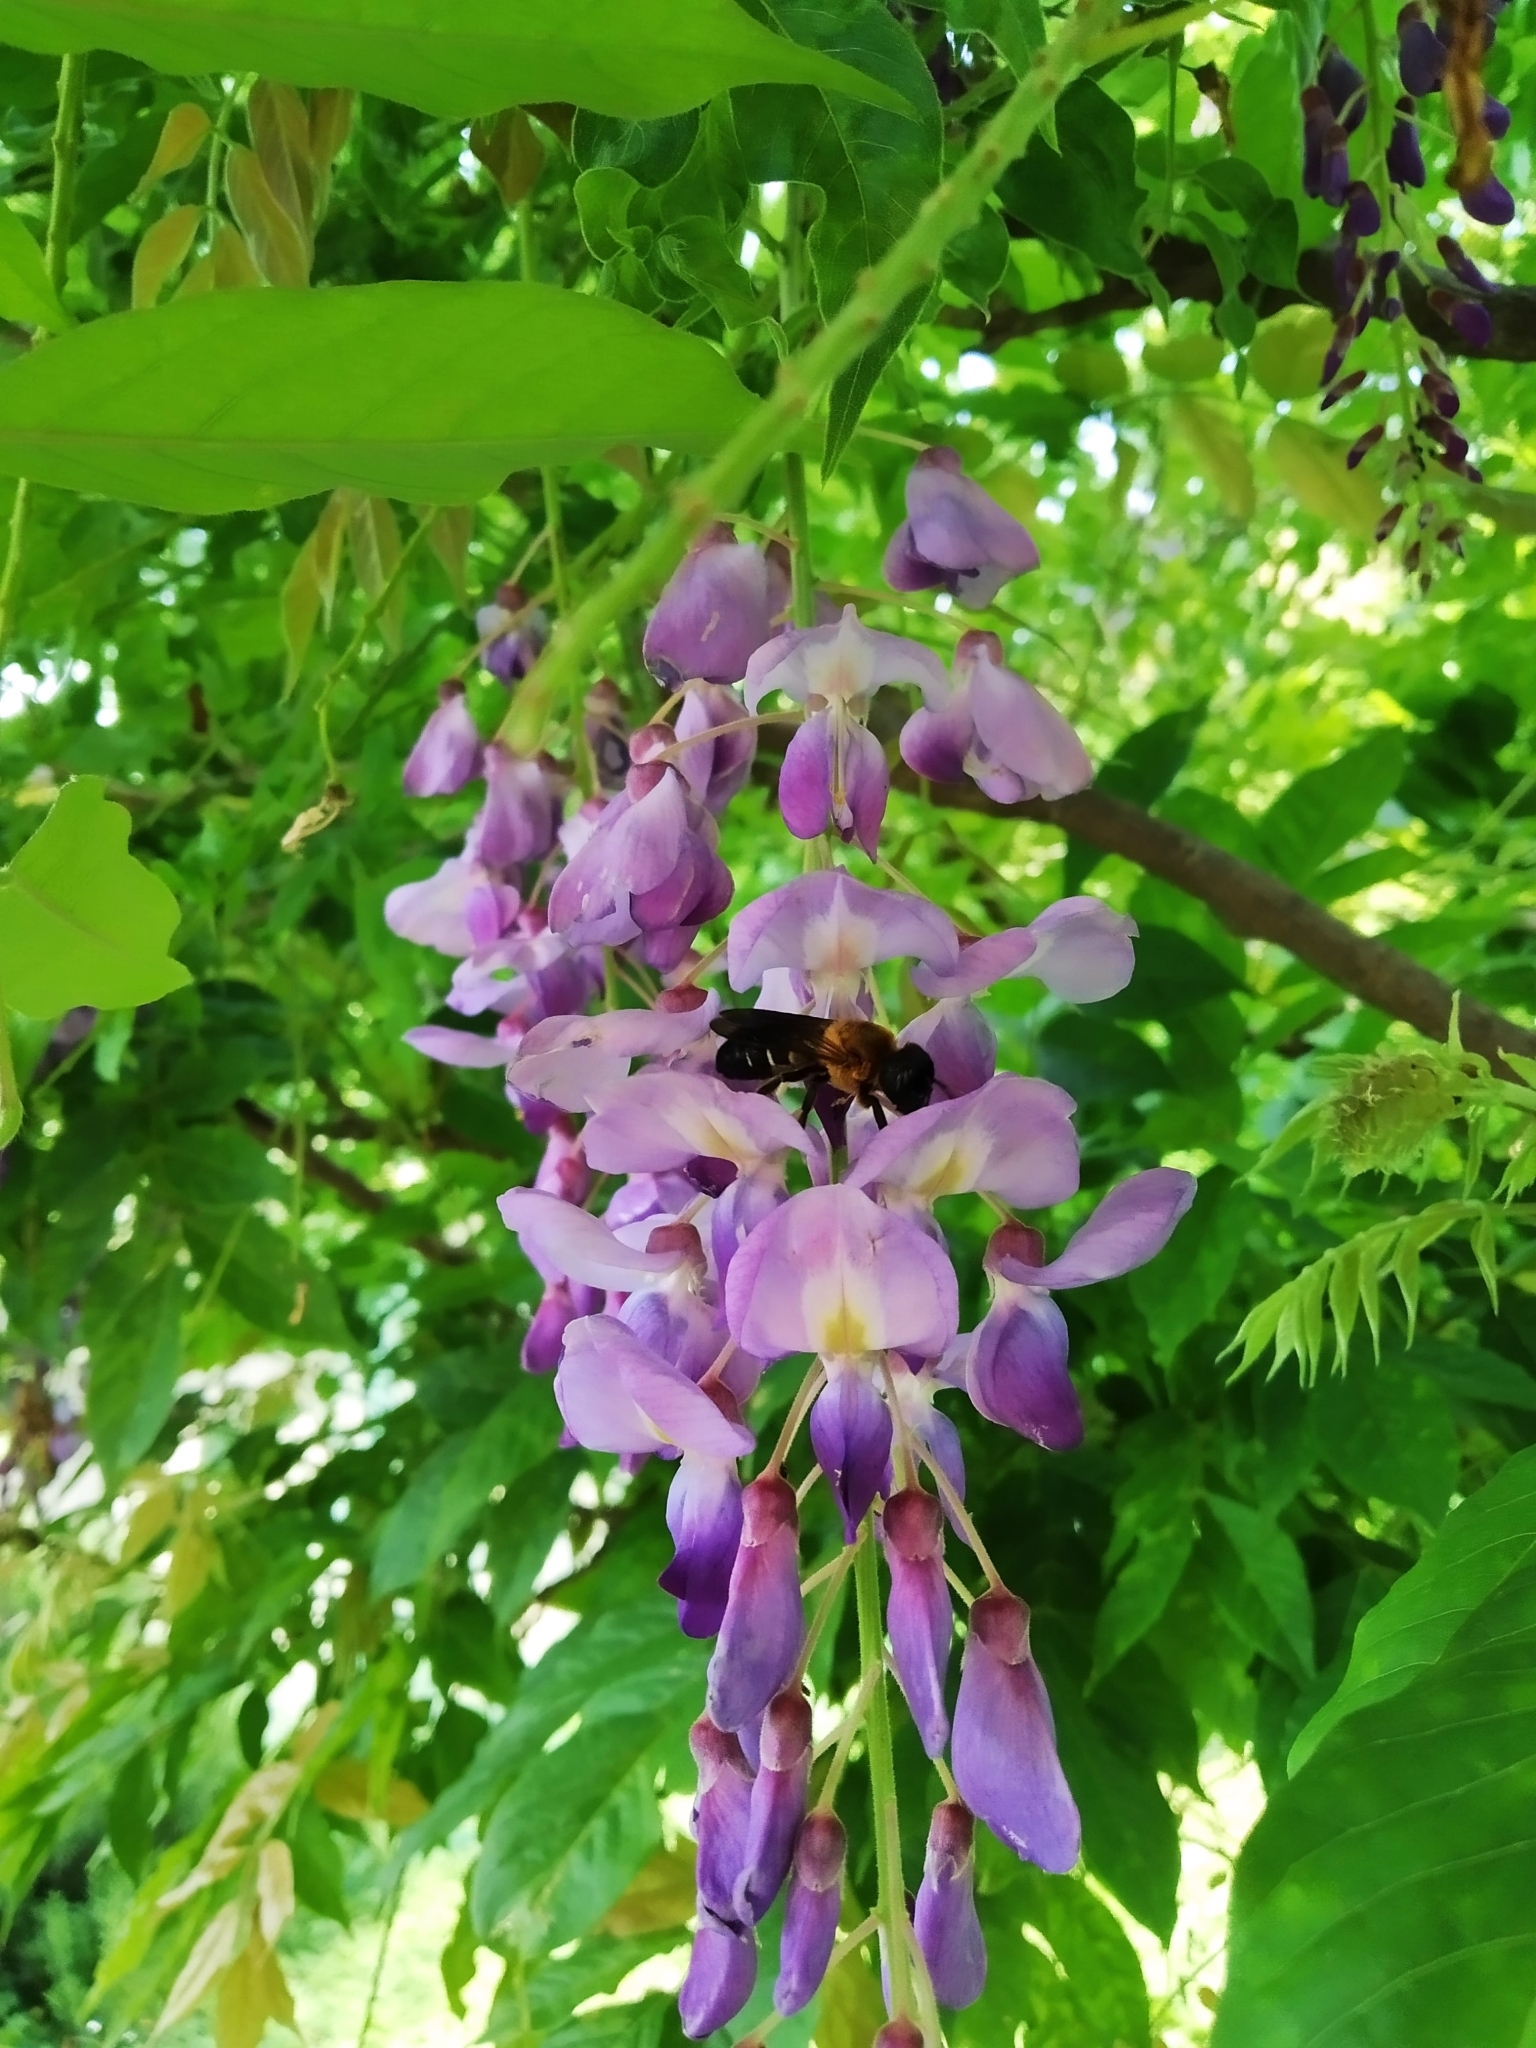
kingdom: Animalia
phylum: Arthropoda
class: Insecta
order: Hymenoptera
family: Megachilidae
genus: Megachile
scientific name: Megachile sculpturalis
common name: Sculptured resin bee
